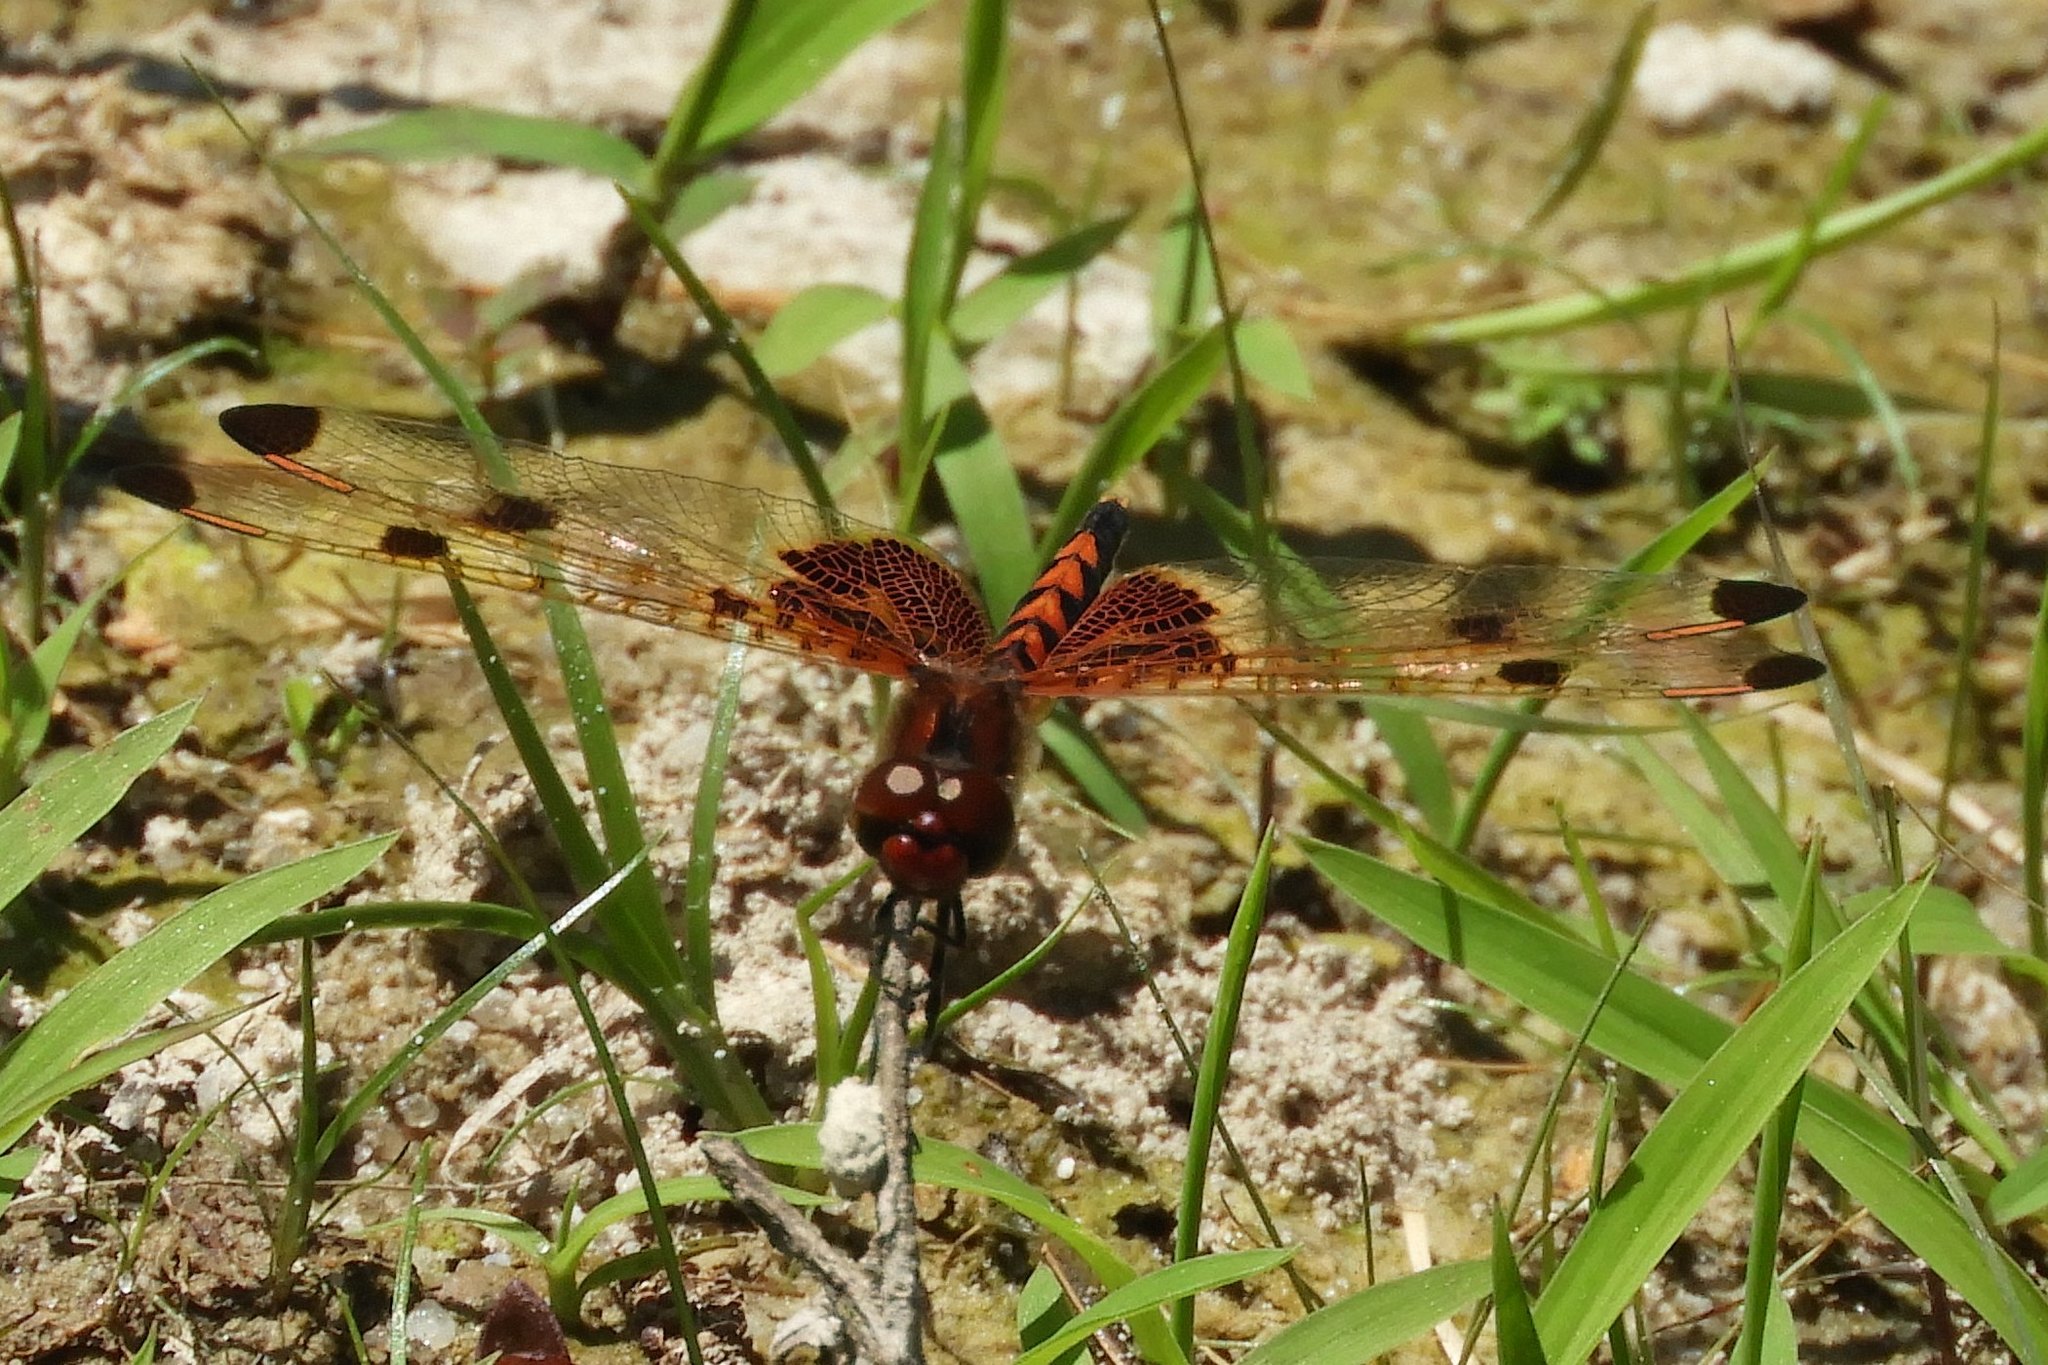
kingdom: Animalia
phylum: Arthropoda
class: Insecta
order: Odonata
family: Libellulidae
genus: Celithemis
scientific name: Celithemis elisa
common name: Calico pennant
